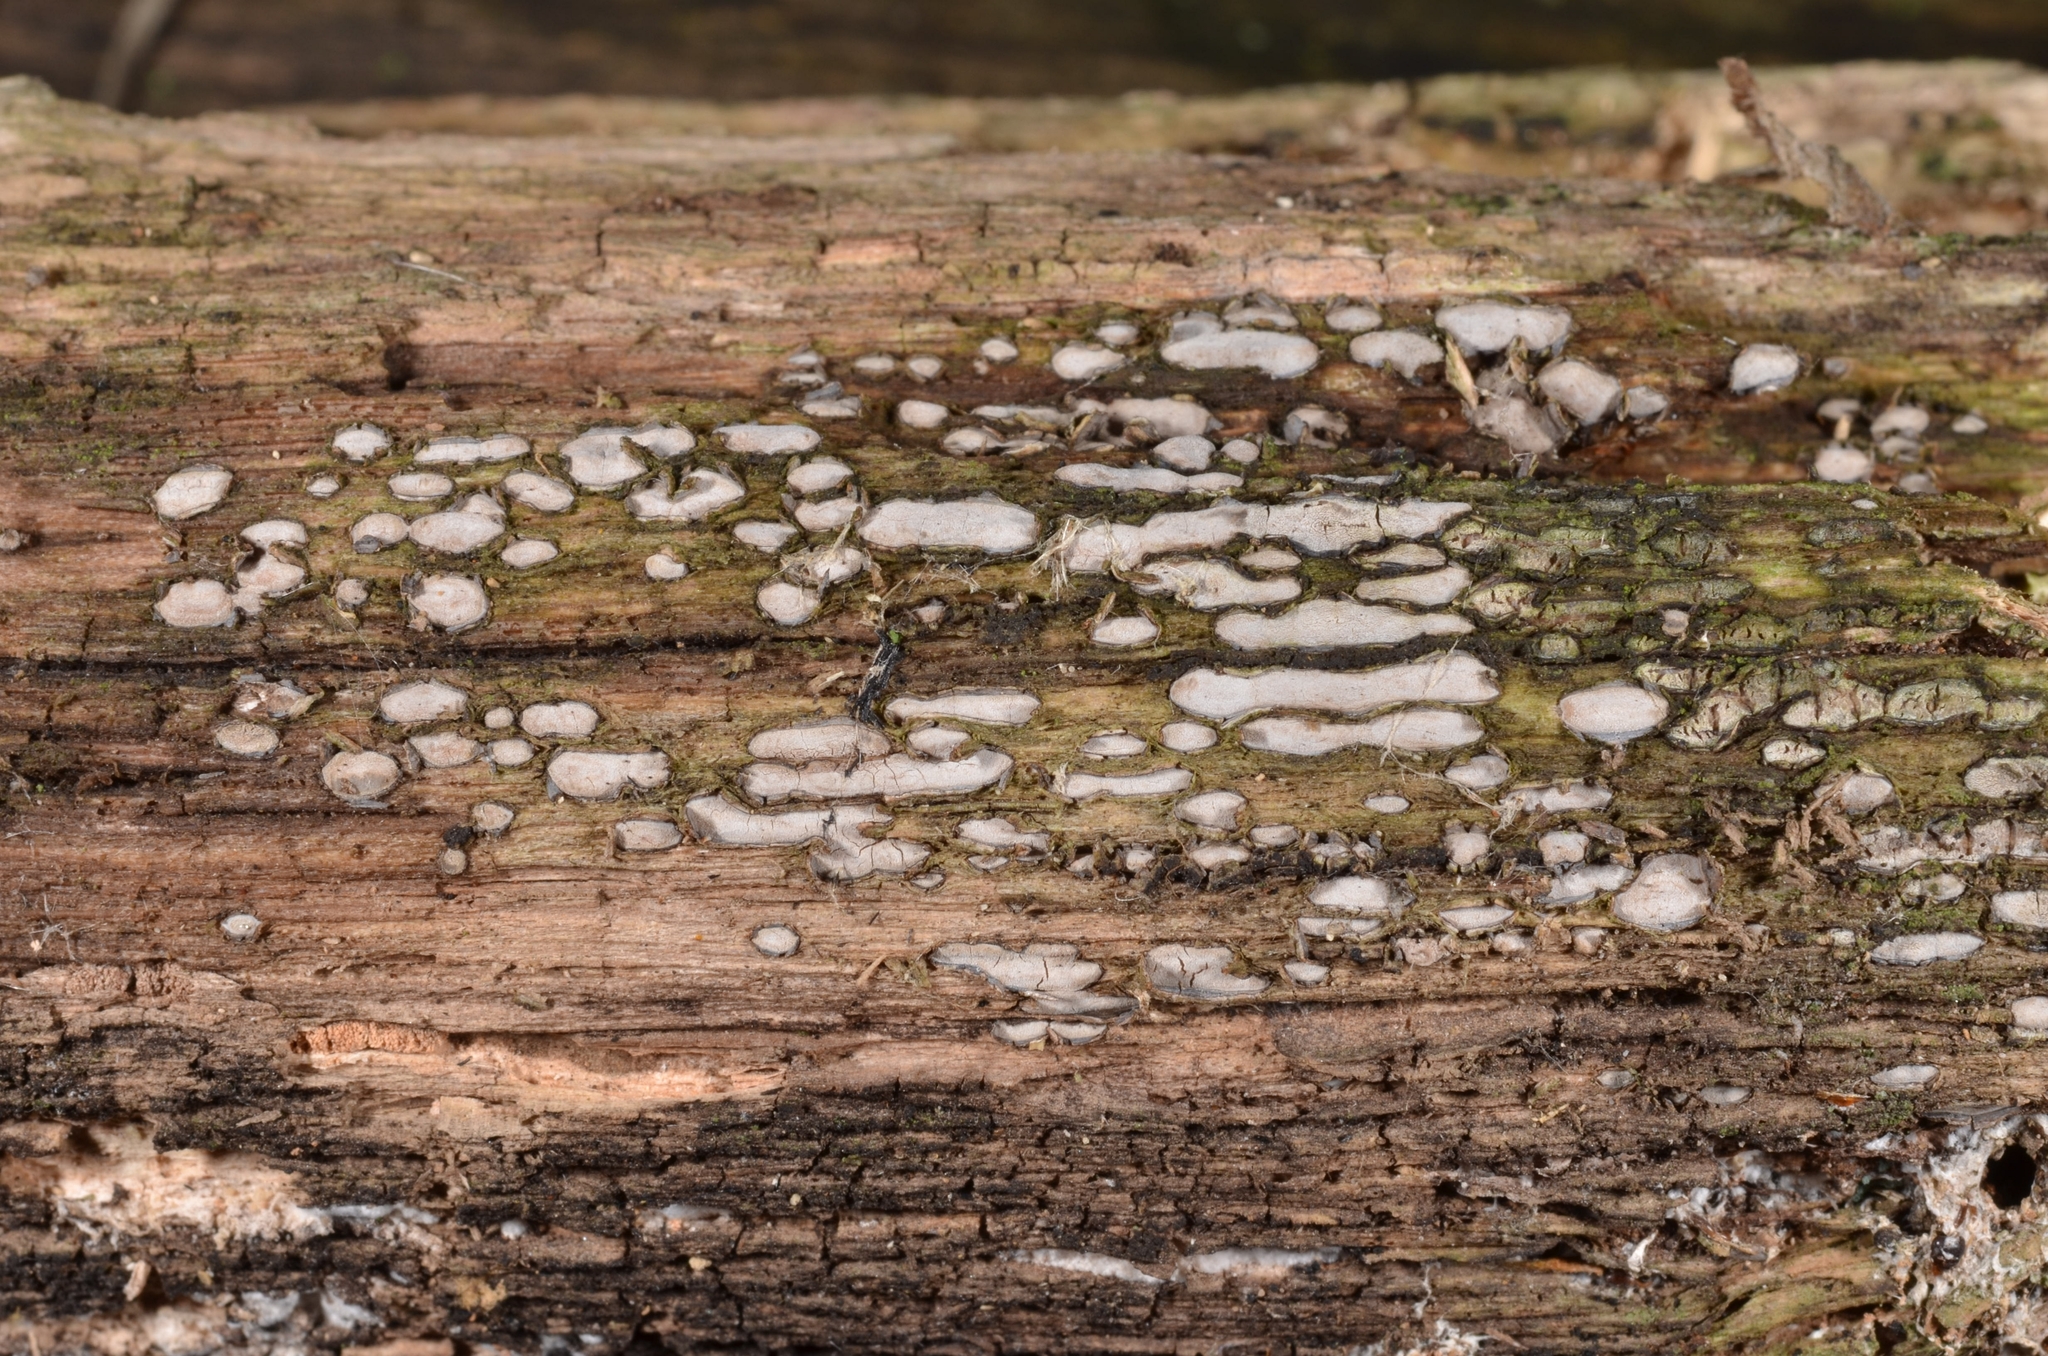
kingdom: Fungi
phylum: Ascomycota
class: Leotiomycetes
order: Chaetomellales
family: Marthamycetaceae
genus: Propolis
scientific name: Propolis farinosa
